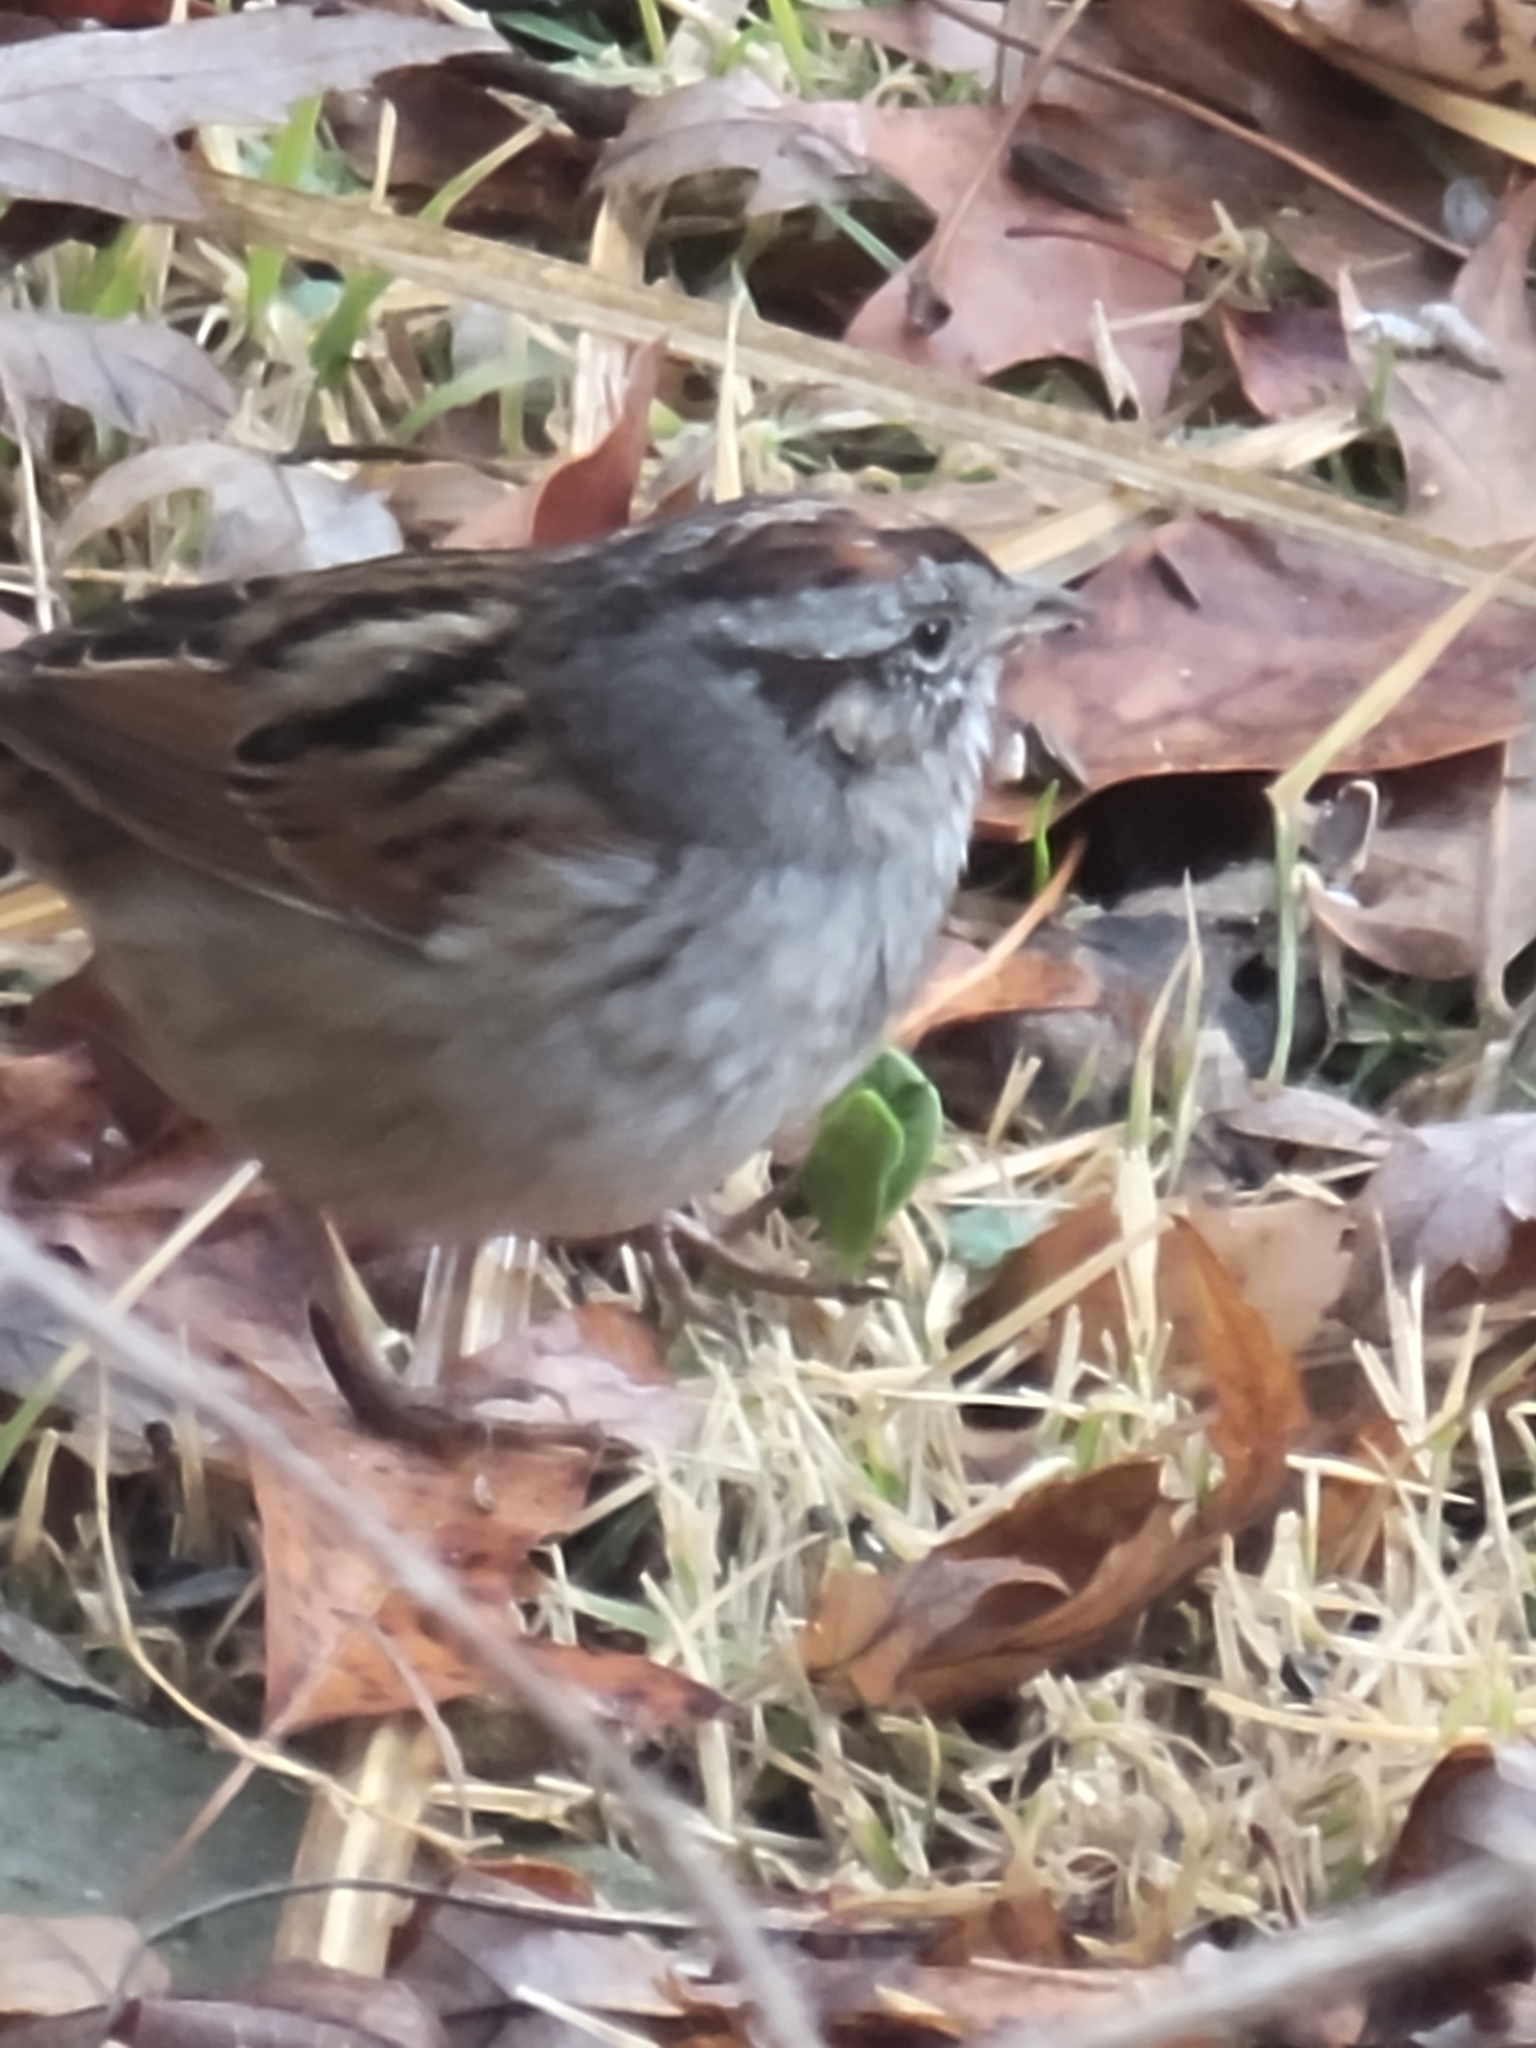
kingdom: Animalia
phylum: Chordata
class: Aves
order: Passeriformes
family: Passerellidae
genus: Melospiza
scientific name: Melospiza georgiana
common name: Swamp sparrow
